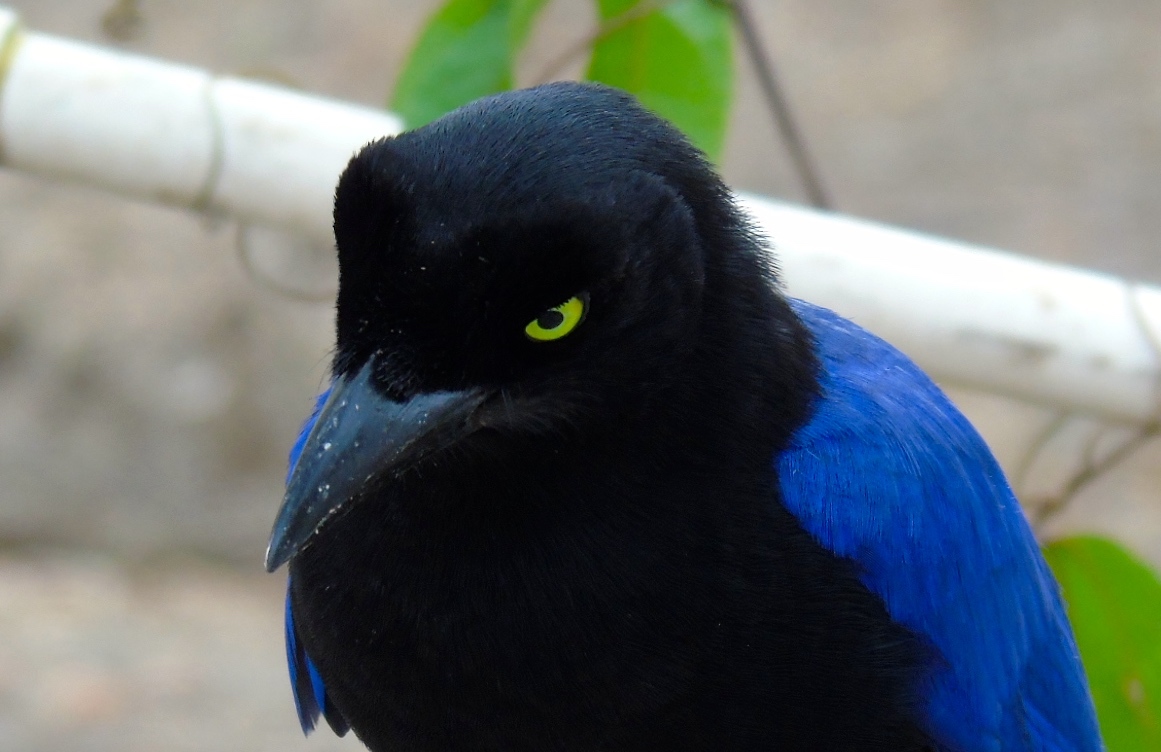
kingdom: Animalia
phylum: Chordata
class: Aves
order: Passeriformes
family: Corvidae
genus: Cyanocorax
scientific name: Cyanocorax beecheii
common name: Purplish-backed jay
